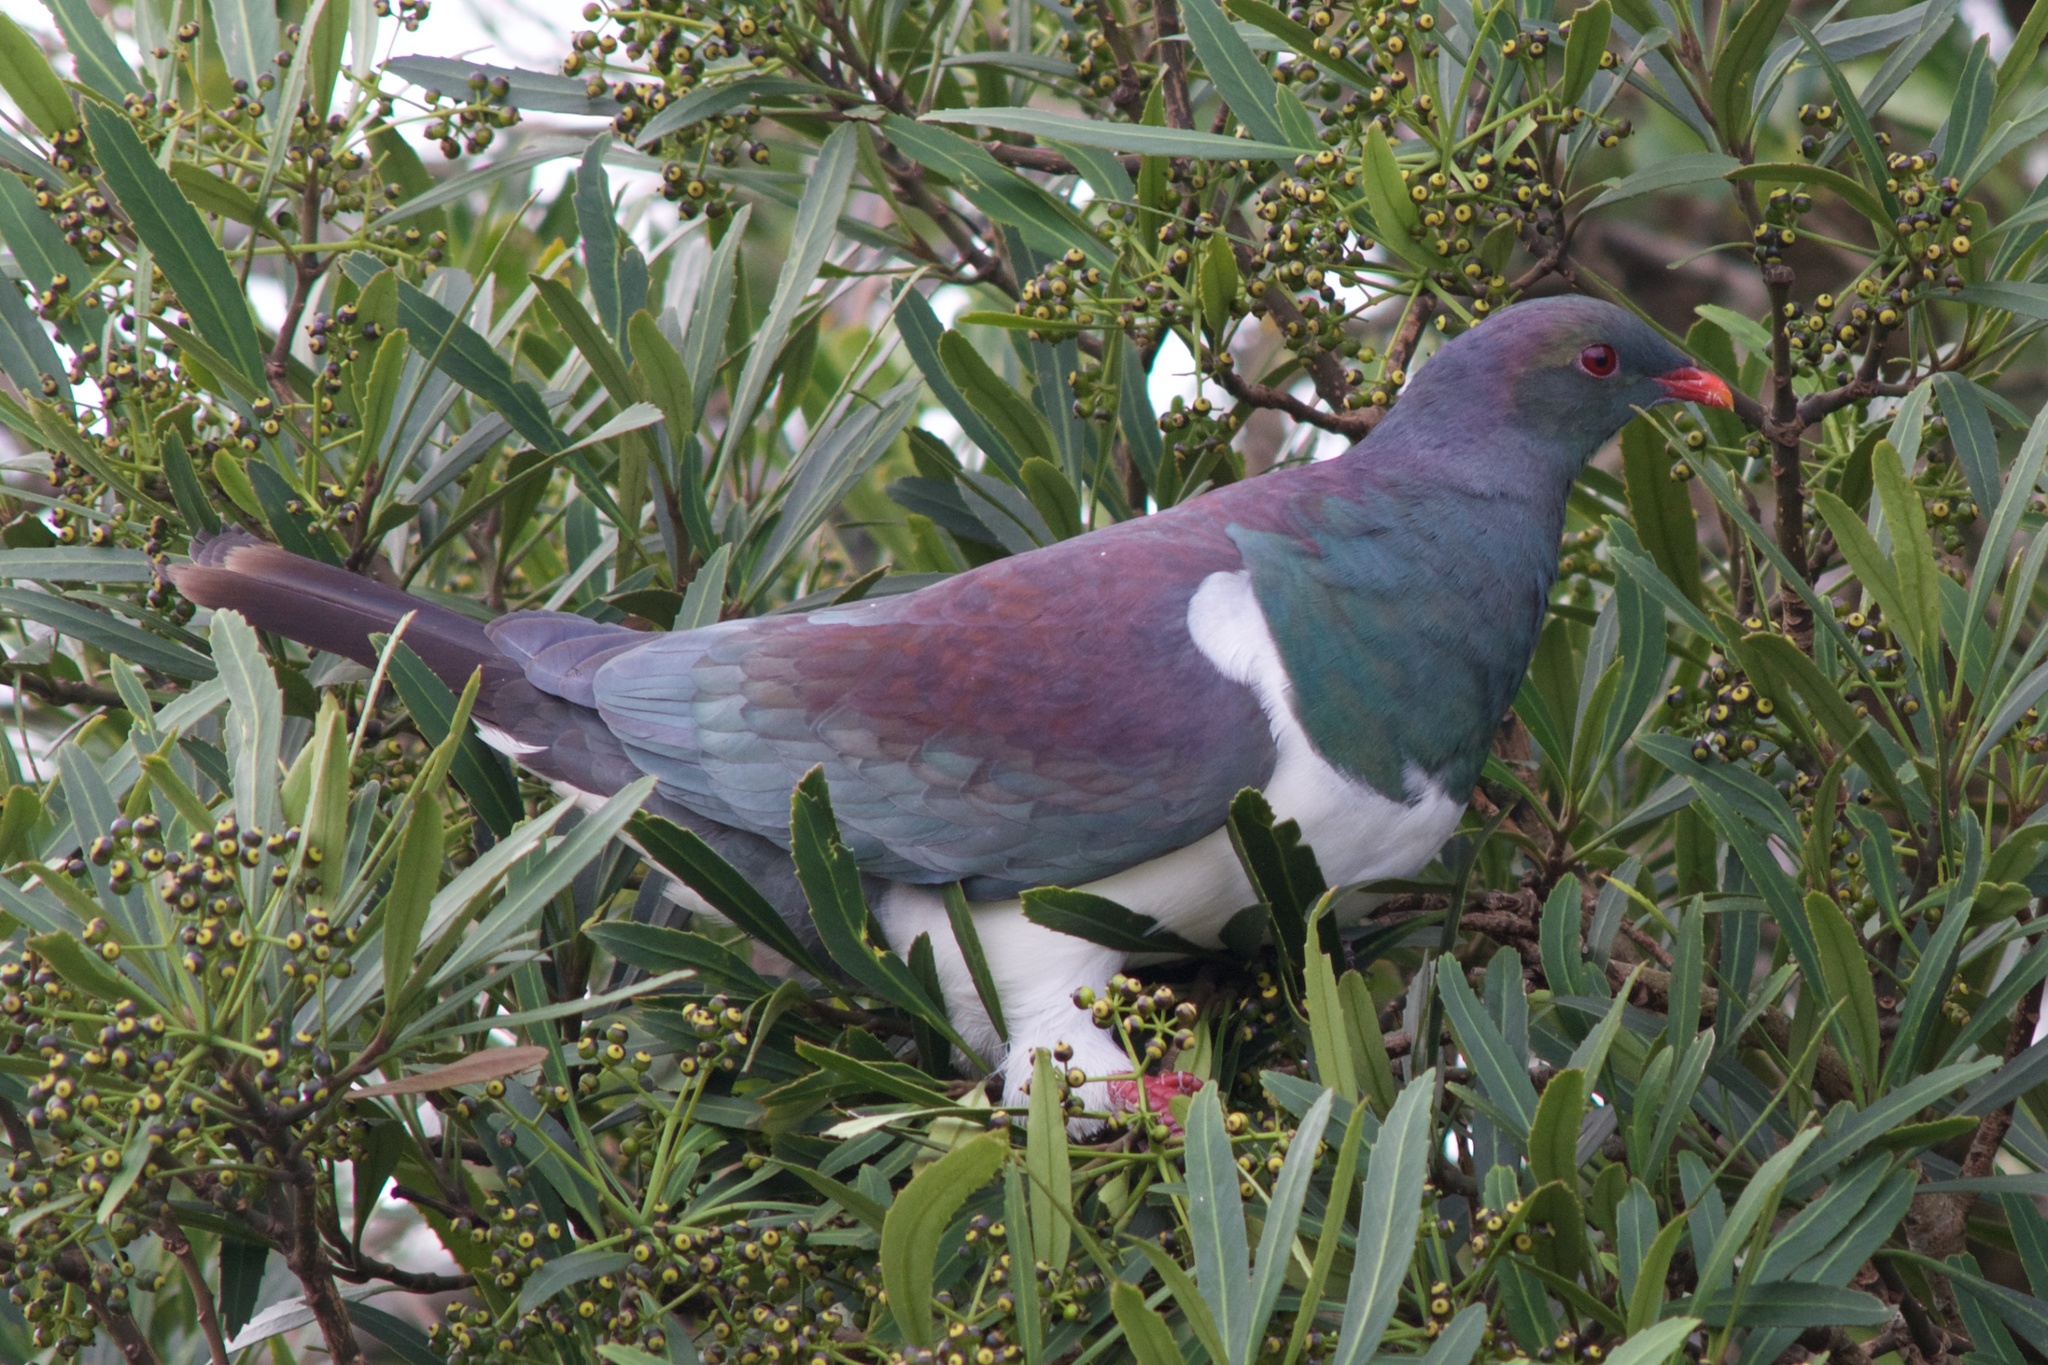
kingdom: Animalia
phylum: Chordata
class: Aves
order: Columbiformes
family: Columbidae
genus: Hemiphaga
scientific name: Hemiphaga novaeseelandiae
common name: New zealand pigeon
